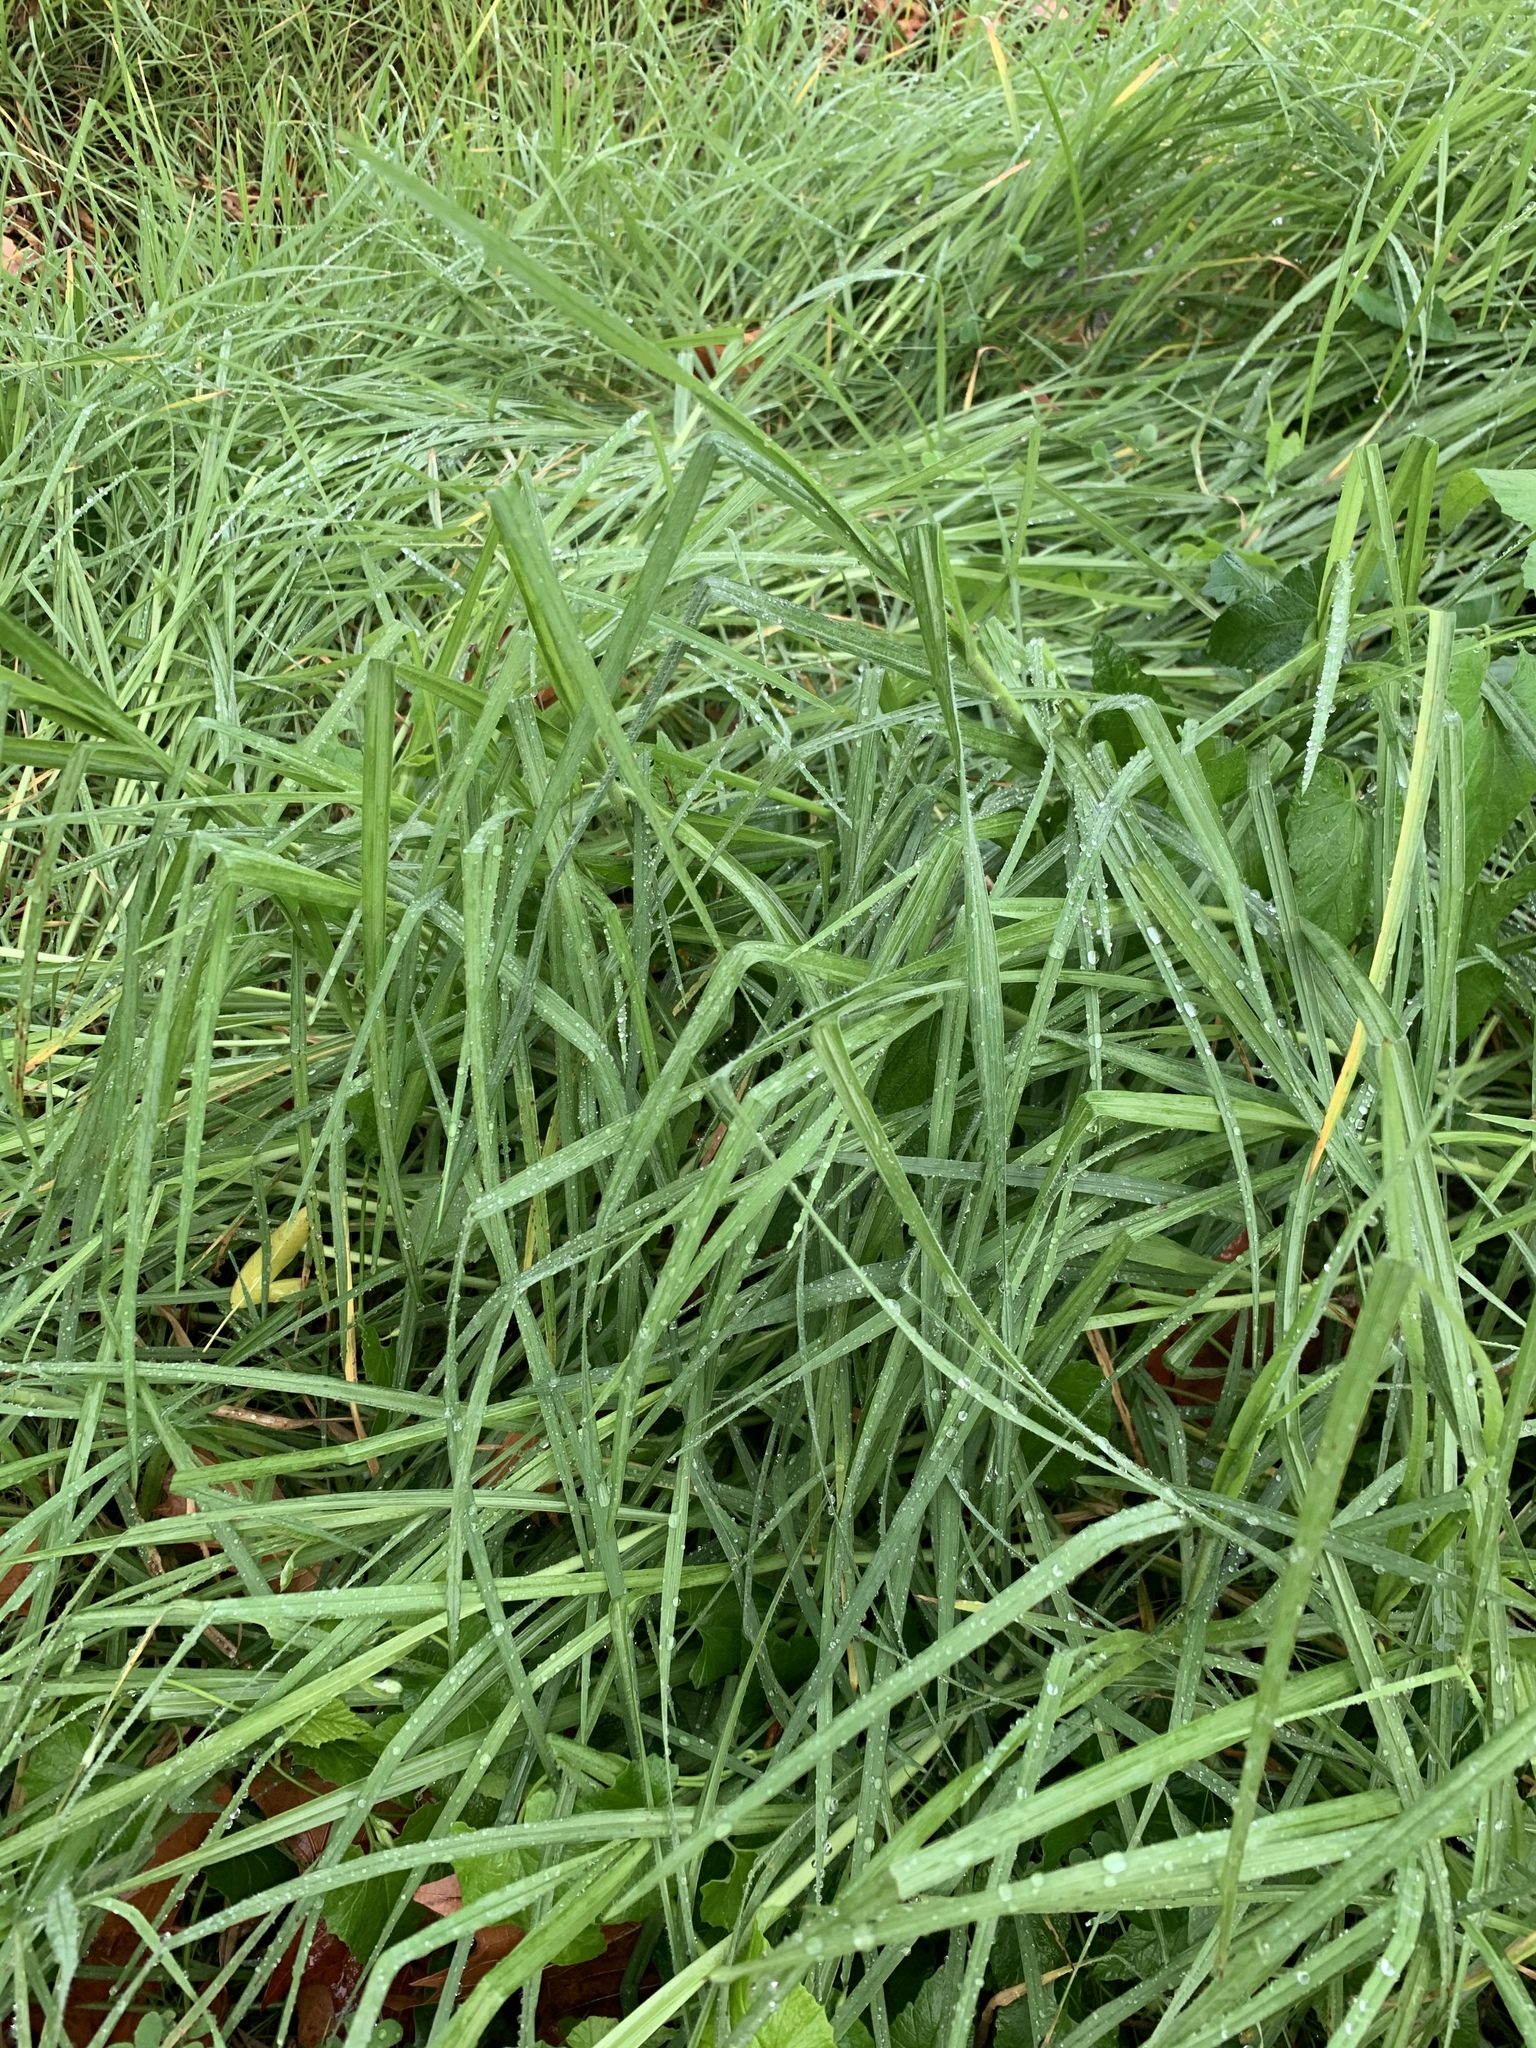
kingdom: Plantae
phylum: Tracheophyta
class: Liliopsida
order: Poales
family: Poaceae
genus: Cenchrus
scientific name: Cenchrus clandestinus
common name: Kikuyugrass
